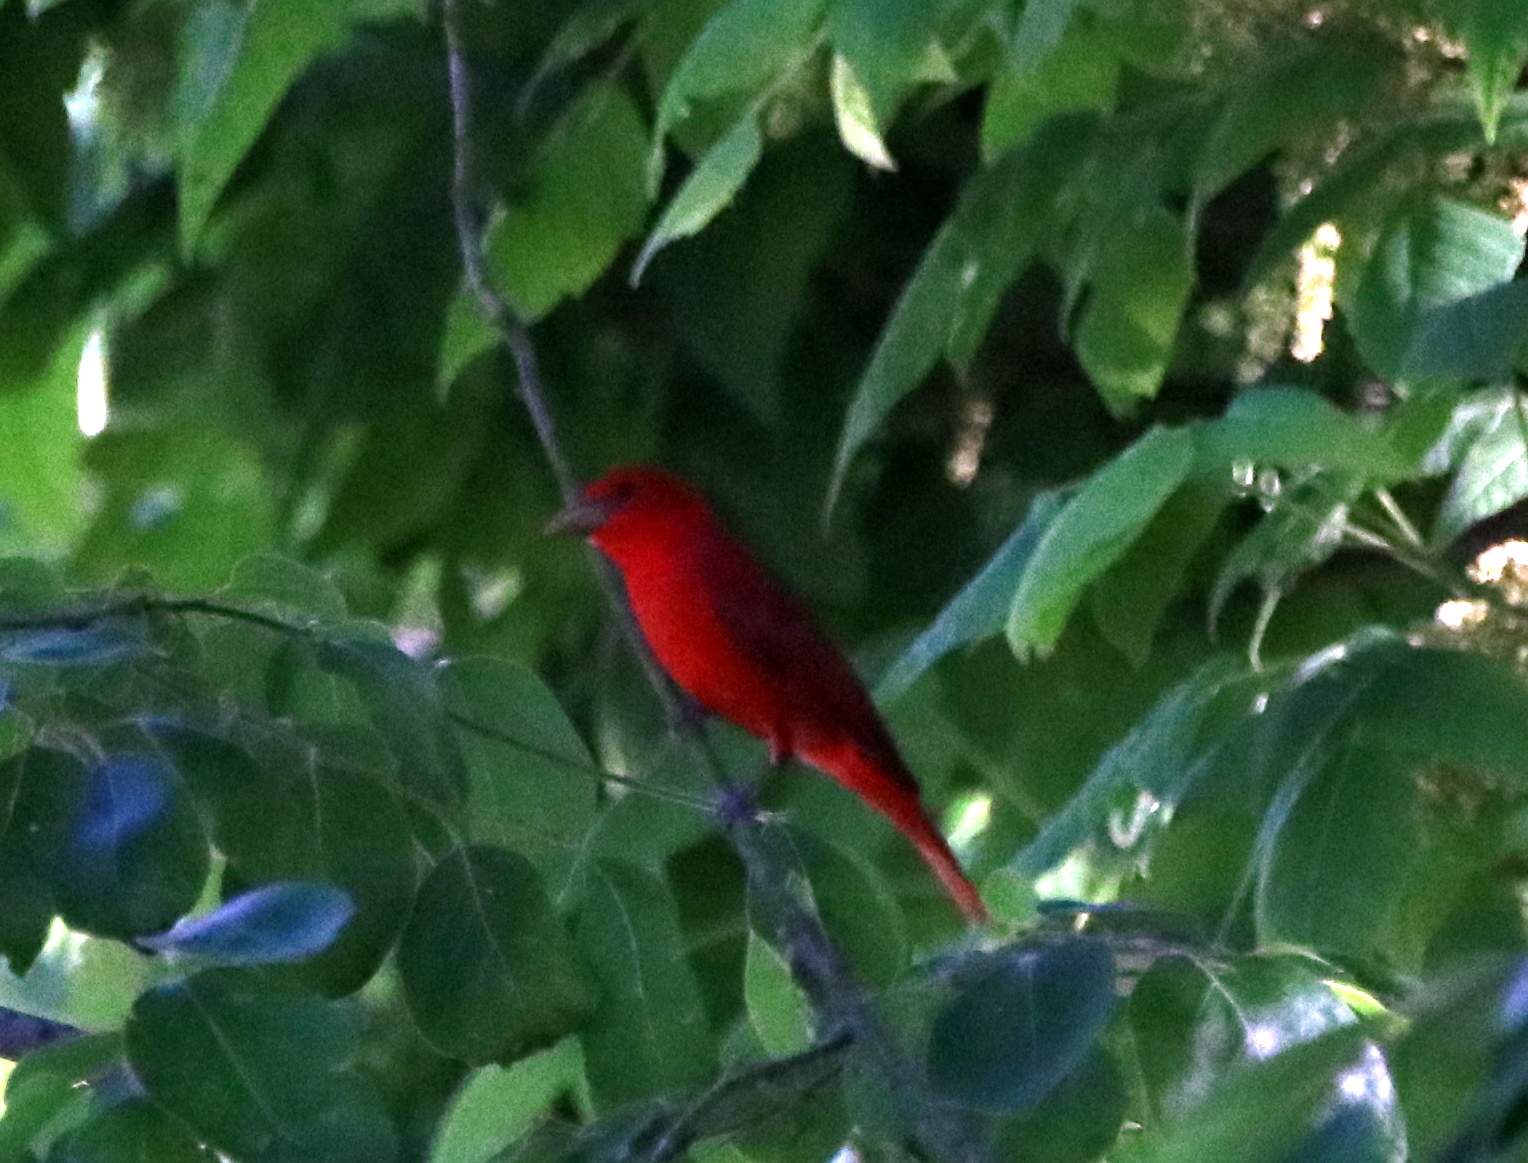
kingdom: Animalia
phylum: Chordata
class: Aves
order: Passeriformes
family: Cardinalidae
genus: Piranga
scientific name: Piranga rubra
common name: Summer tanager
